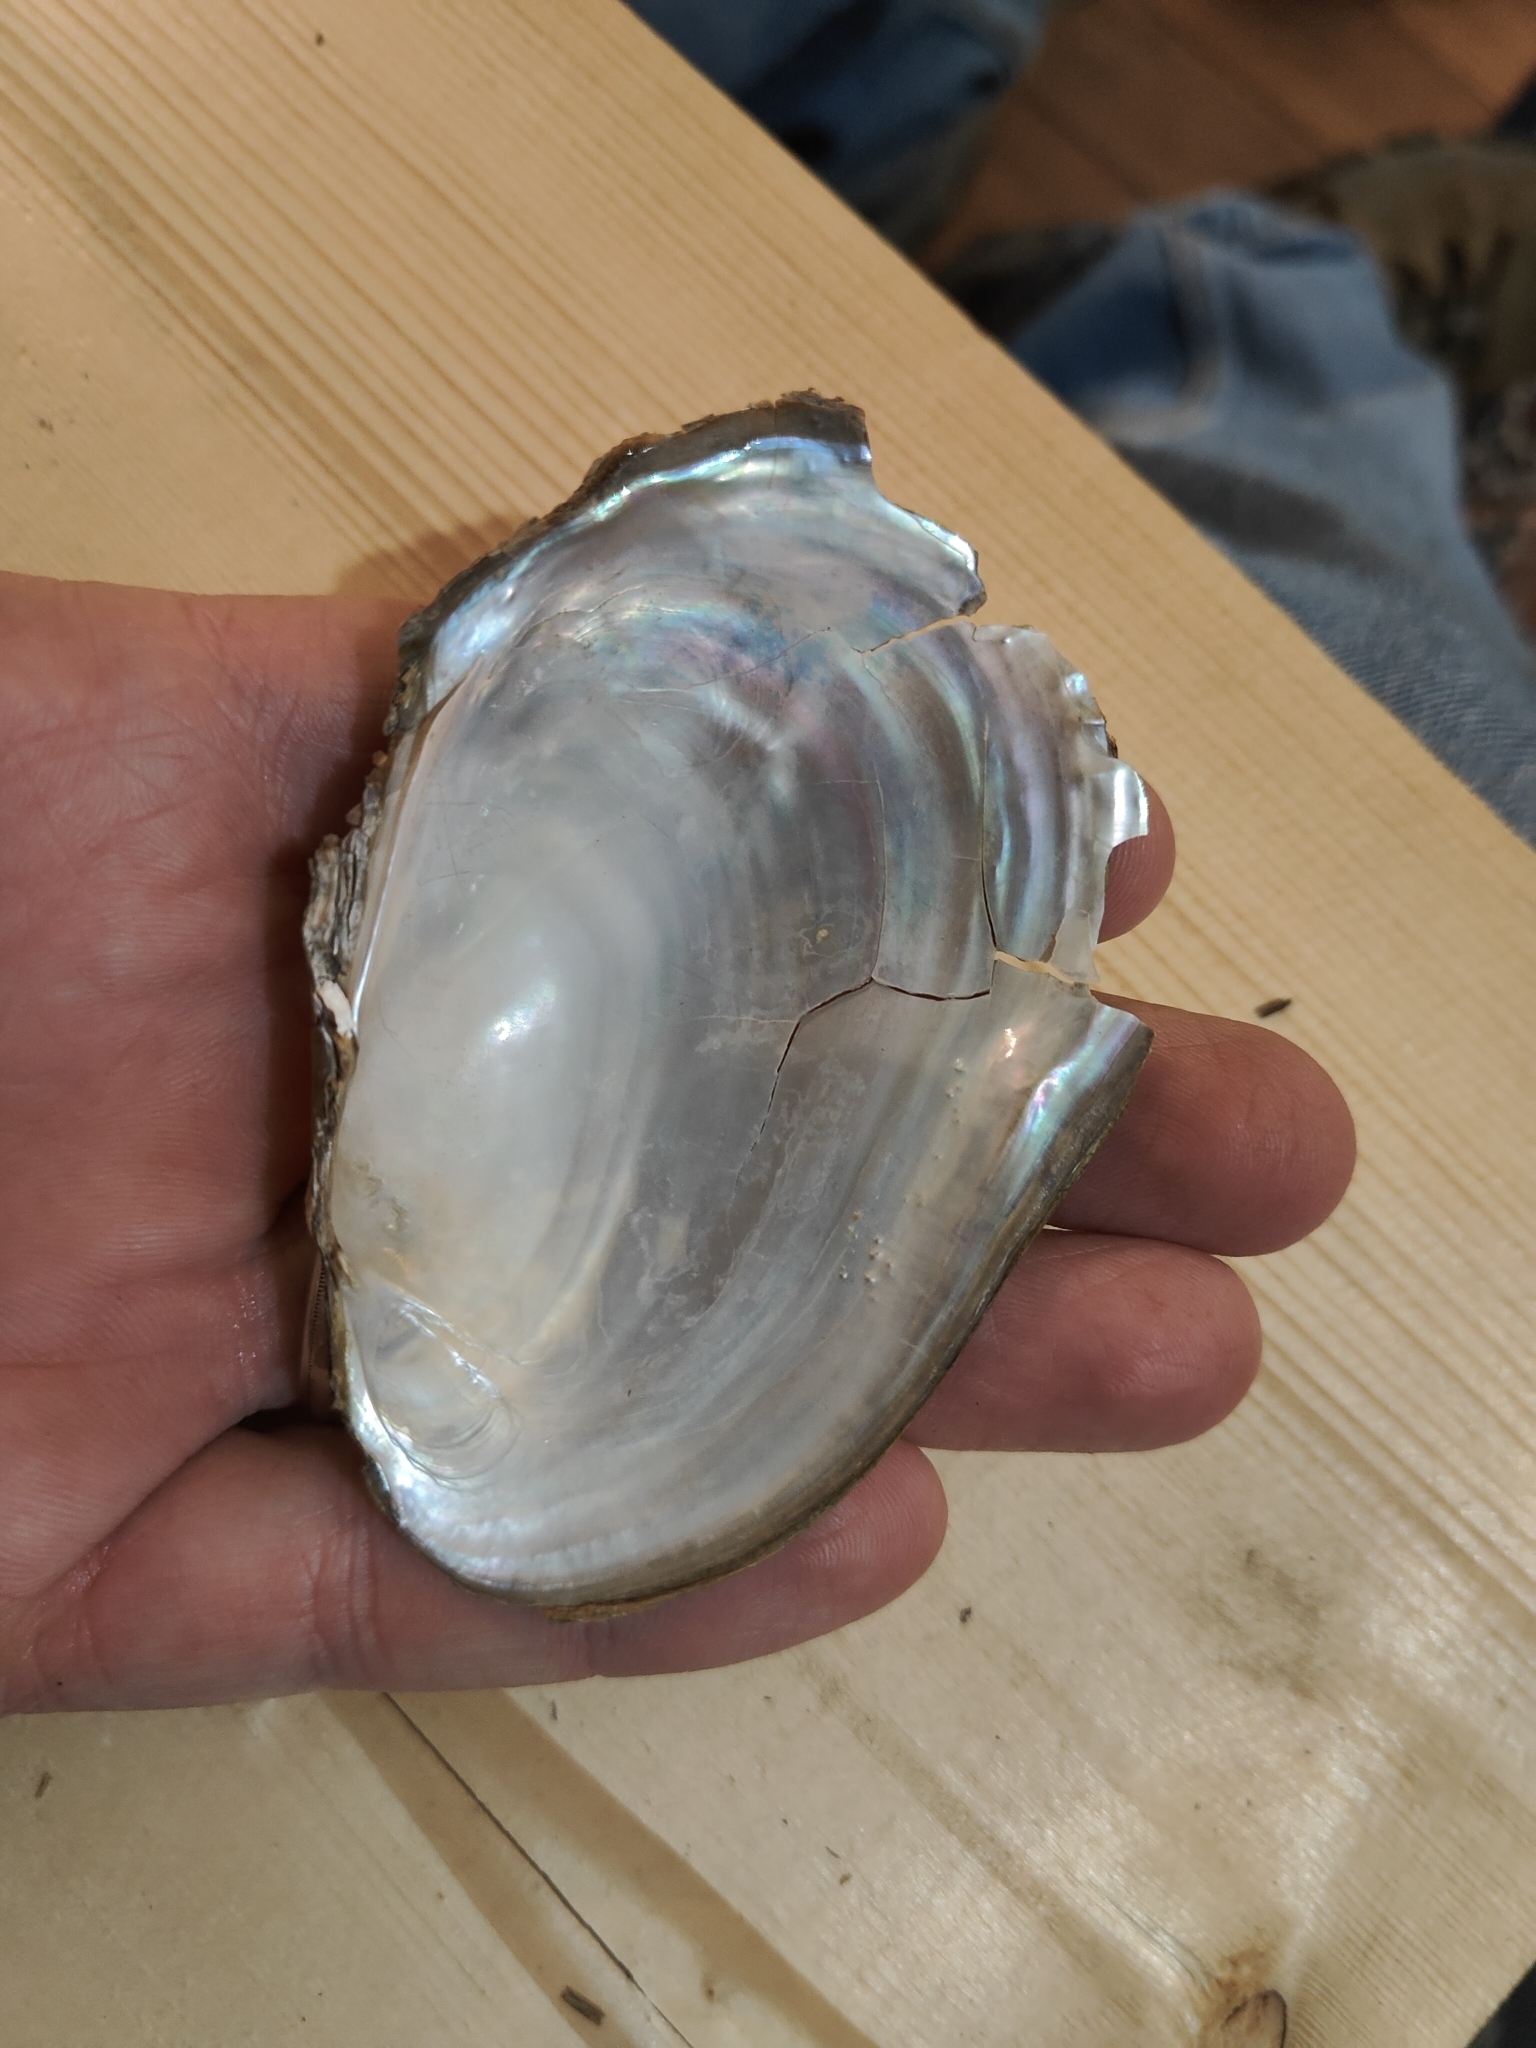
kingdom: Animalia
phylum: Mollusca
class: Bivalvia
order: Unionida
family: Unionidae
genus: Potamilus
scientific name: Potamilus fragilis
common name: Fragile papershell
